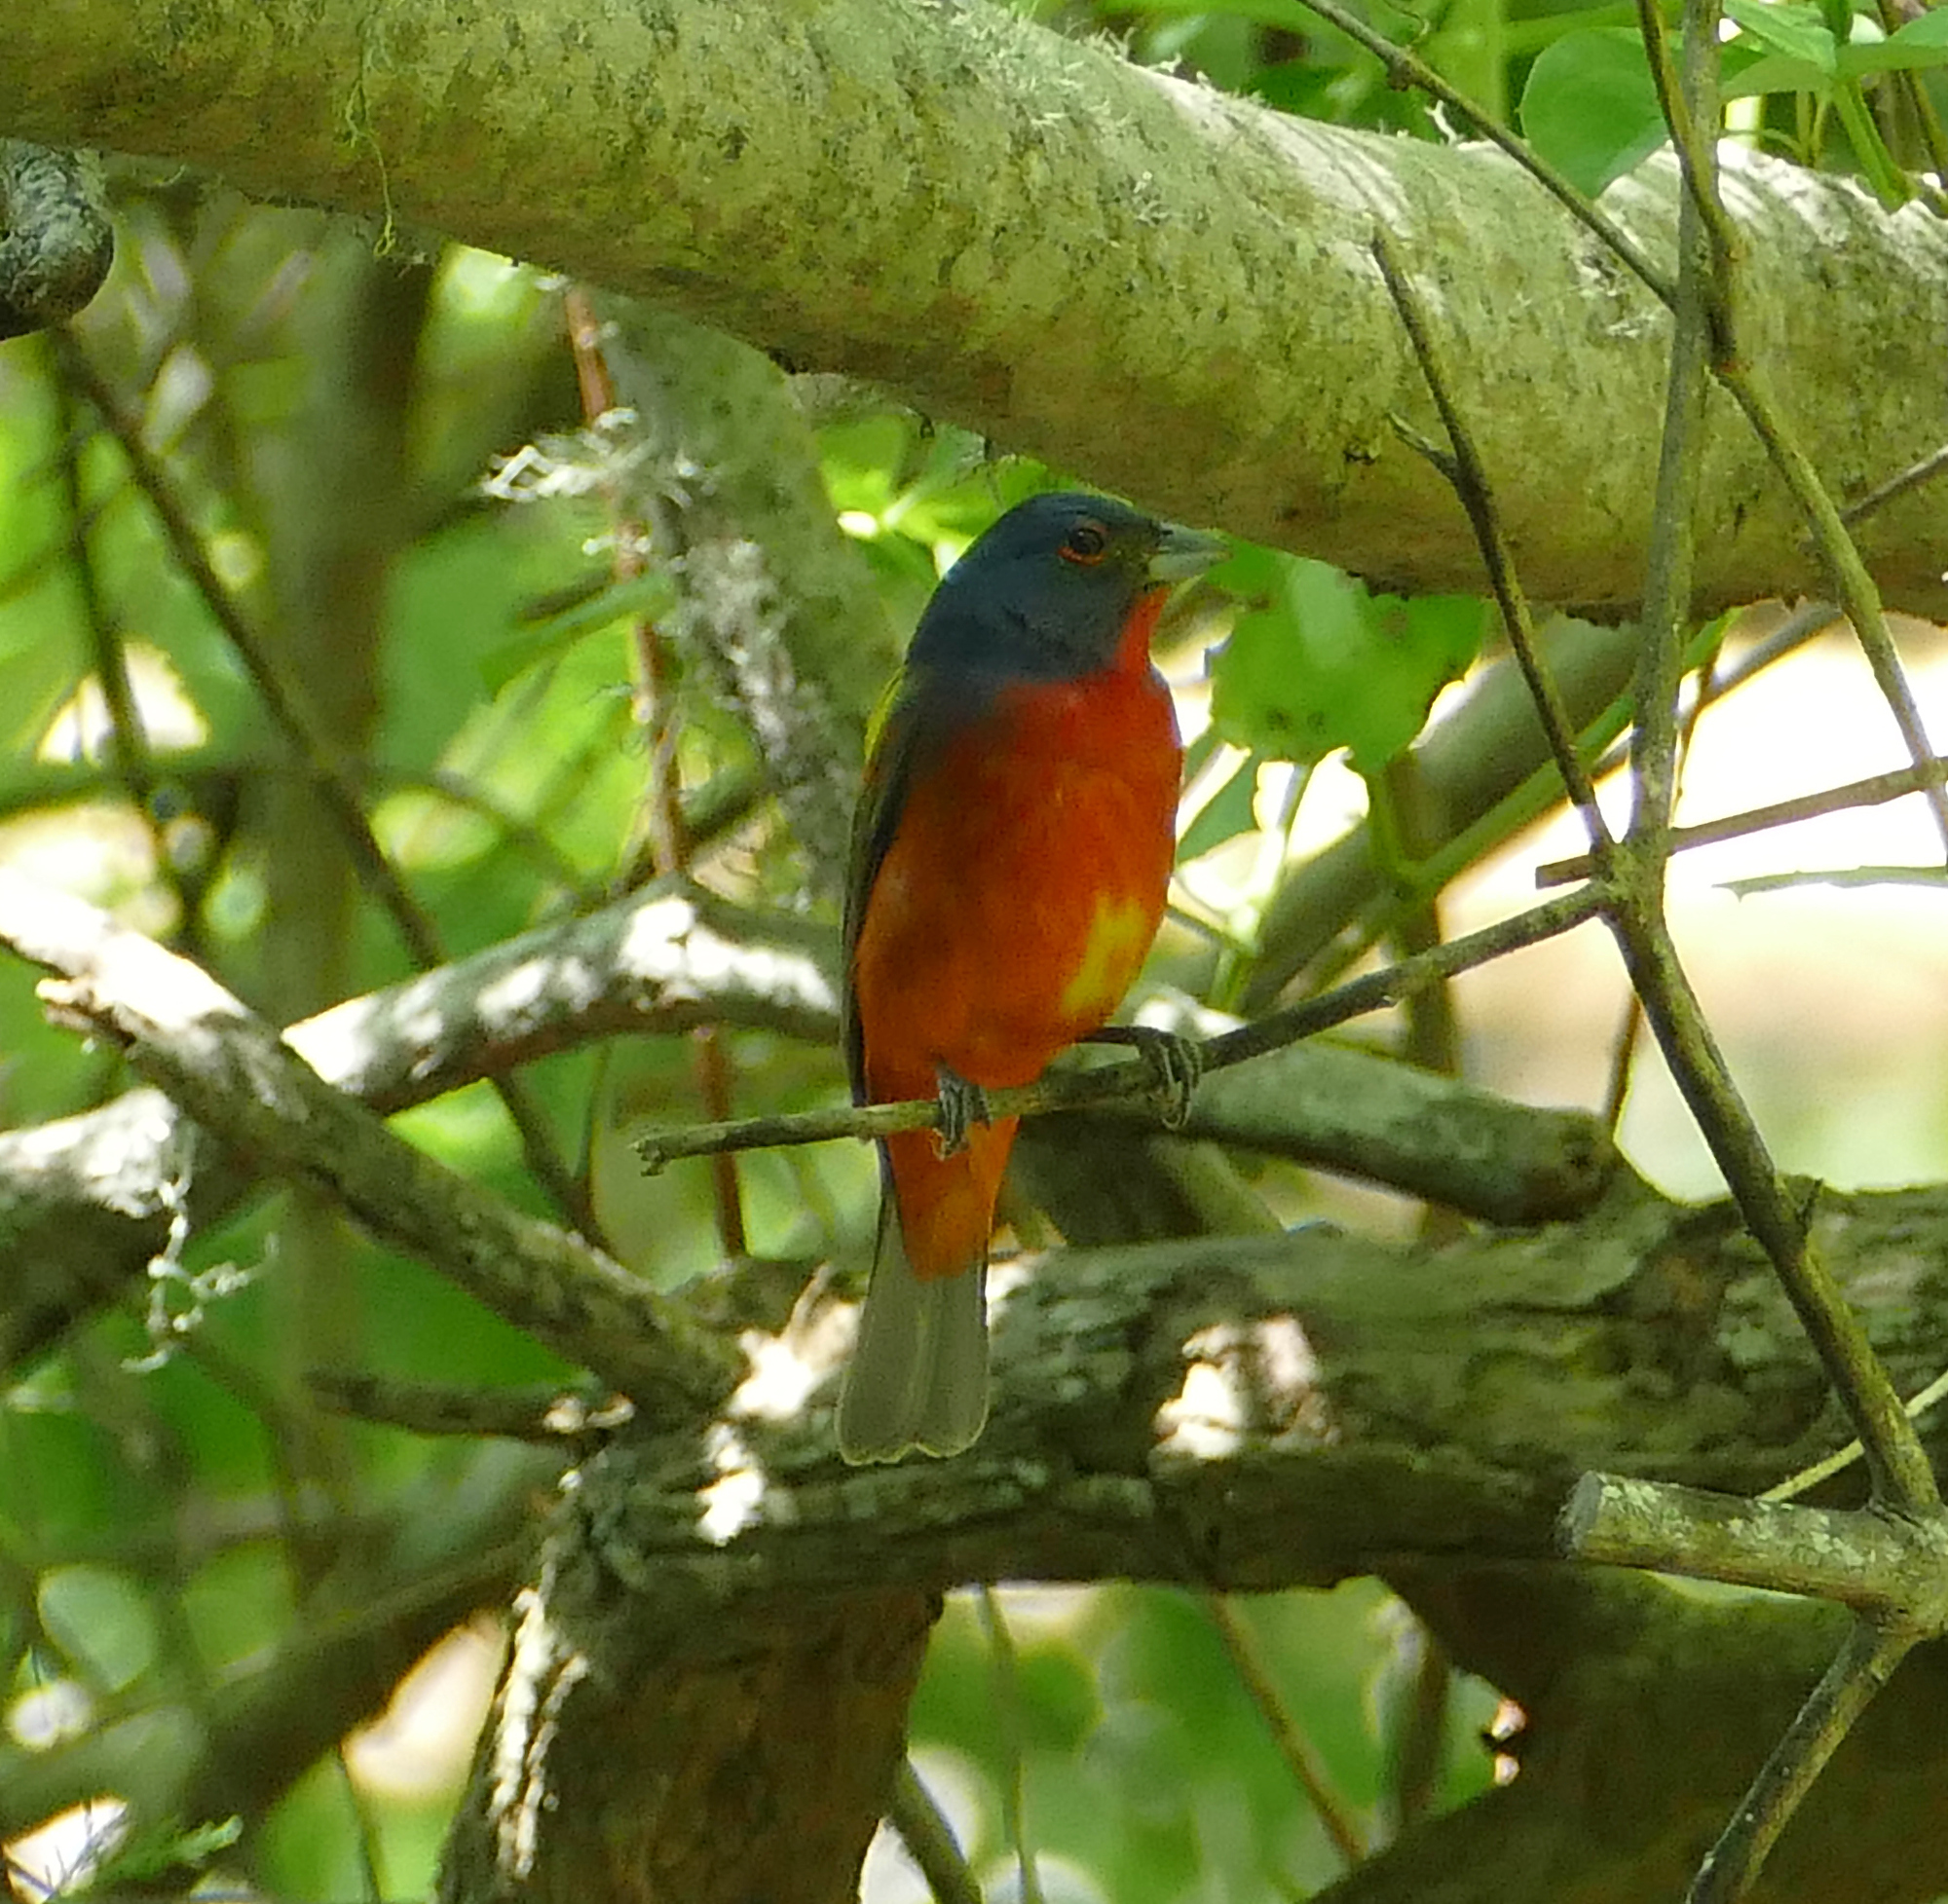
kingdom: Animalia
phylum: Chordata
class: Aves
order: Passeriformes
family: Cardinalidae
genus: Passerina
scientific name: Passerina ciris
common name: Painted bunting
